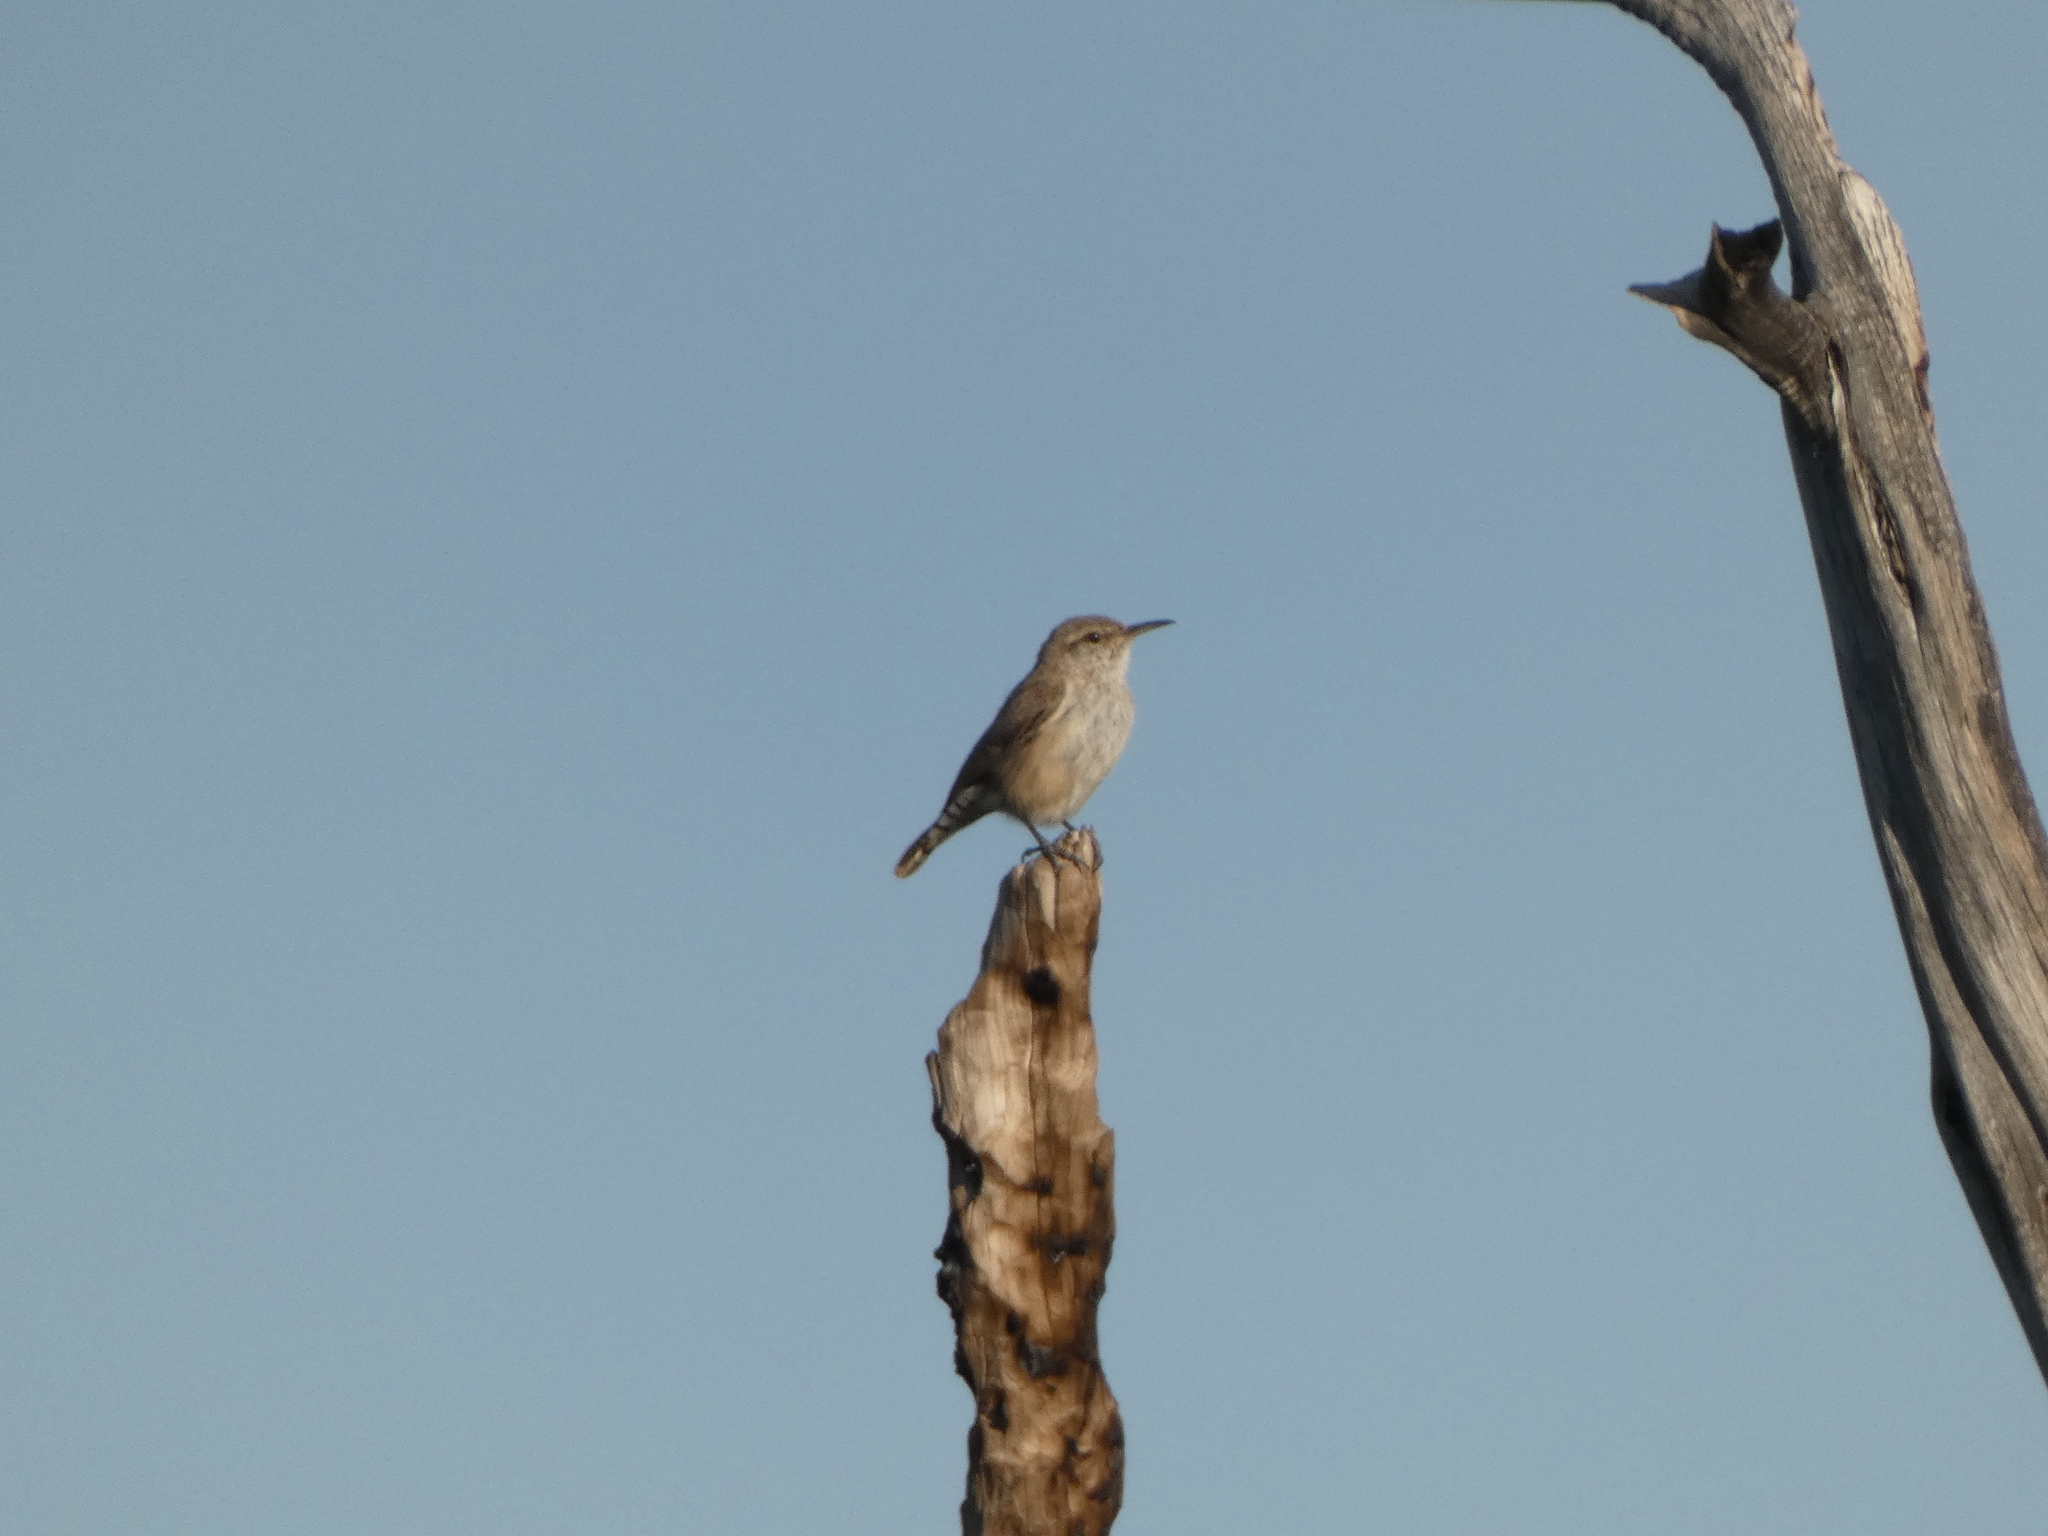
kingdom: Animalia
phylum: Chordata
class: Aves
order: Passeriformes
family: Troglodytidae
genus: Salpinctes
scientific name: Salpinctes obsoletus
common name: Rock wren
